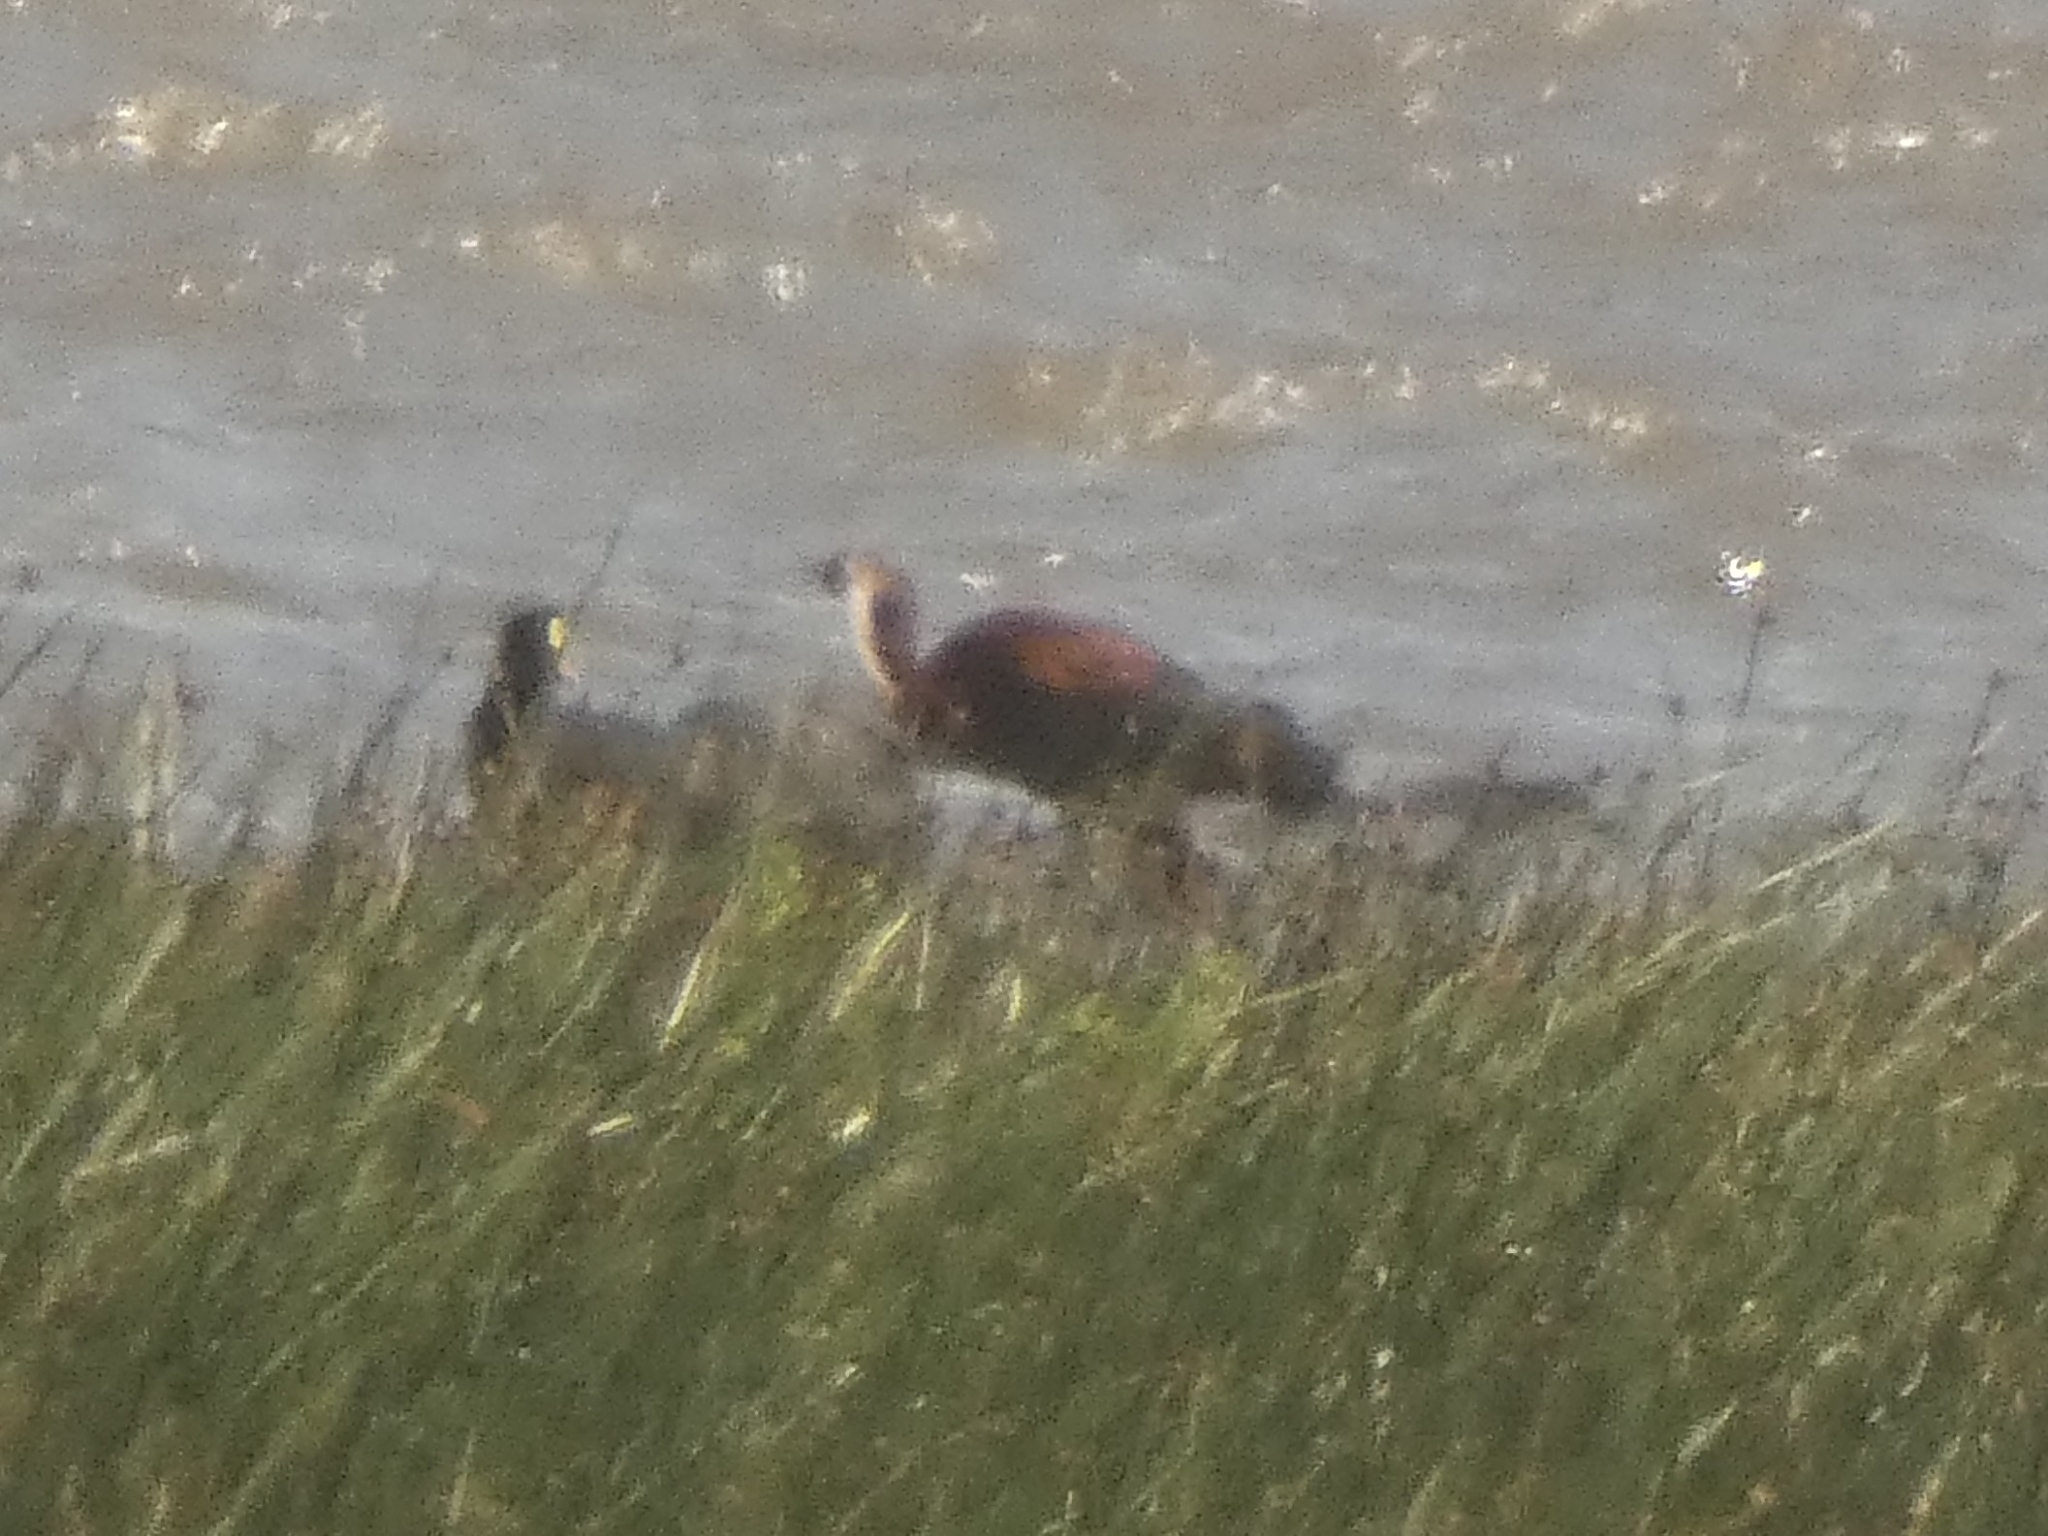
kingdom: Animalia
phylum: Chordata
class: Aves
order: Pelecaniformes
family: Threskiornithidae
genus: Plegadis
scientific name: Plegadis chihi
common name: White-faced ibis
